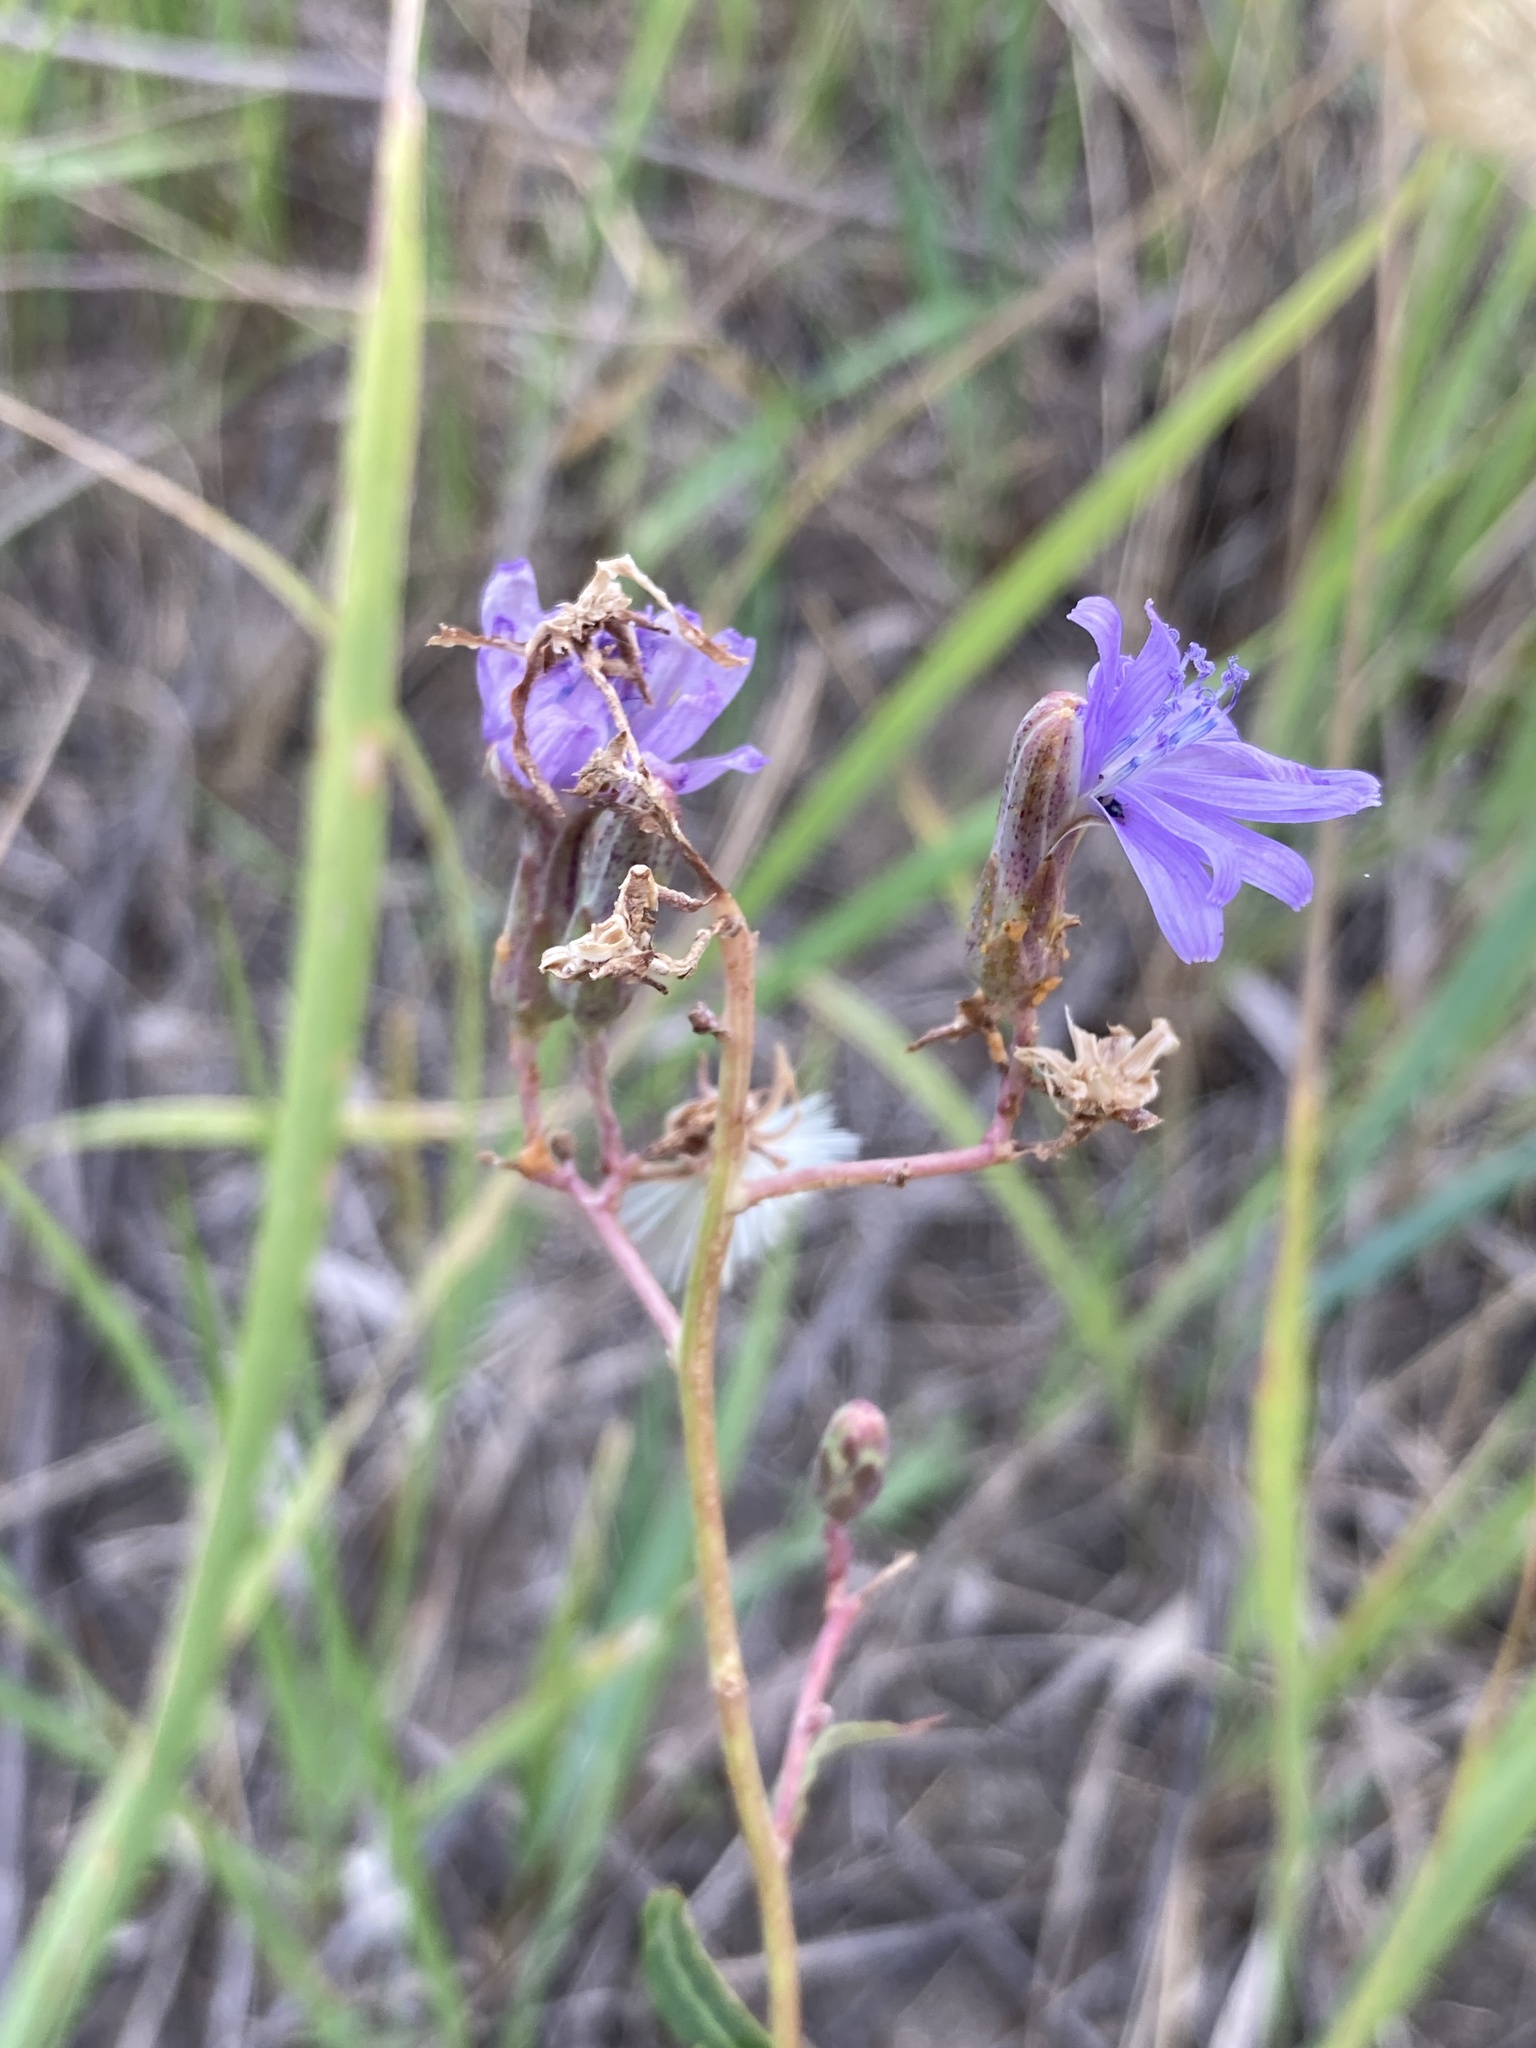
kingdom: Plantae
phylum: Tracheophyta
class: Magnoliopsida
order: Asterales
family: Asteraceae
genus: Lactuca
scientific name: Lactuca tatarica
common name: Blue lettuce
